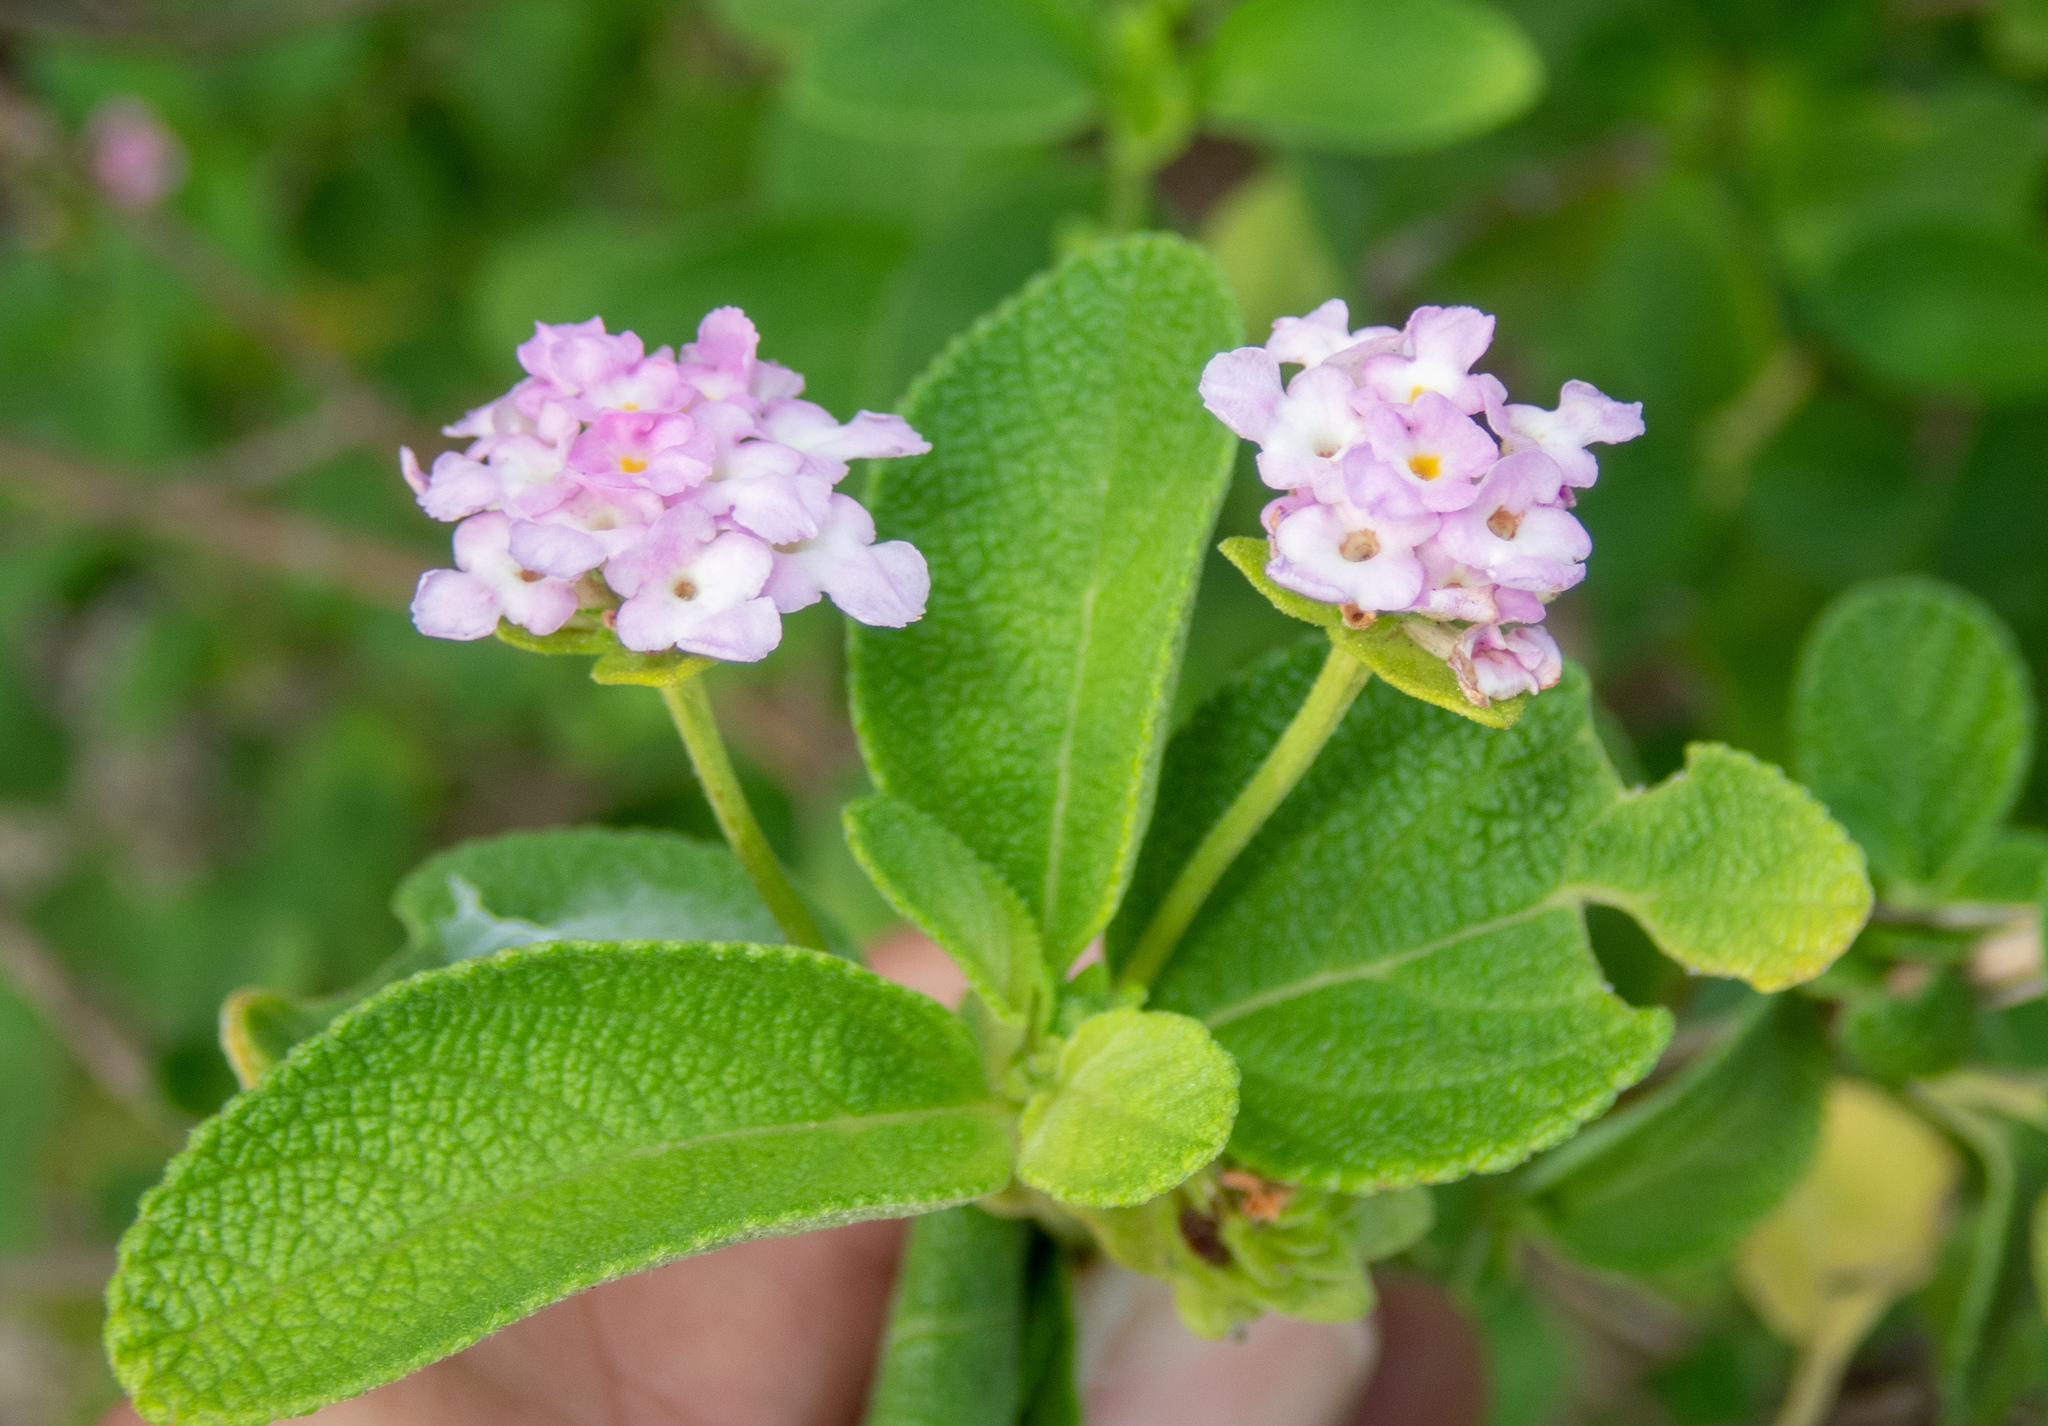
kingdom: Plantae
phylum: Tracheophyta
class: Magnoliopsida
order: Lamiales
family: Verbenaceae
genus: Lantana
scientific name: Lantana involucrata
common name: Black sage
